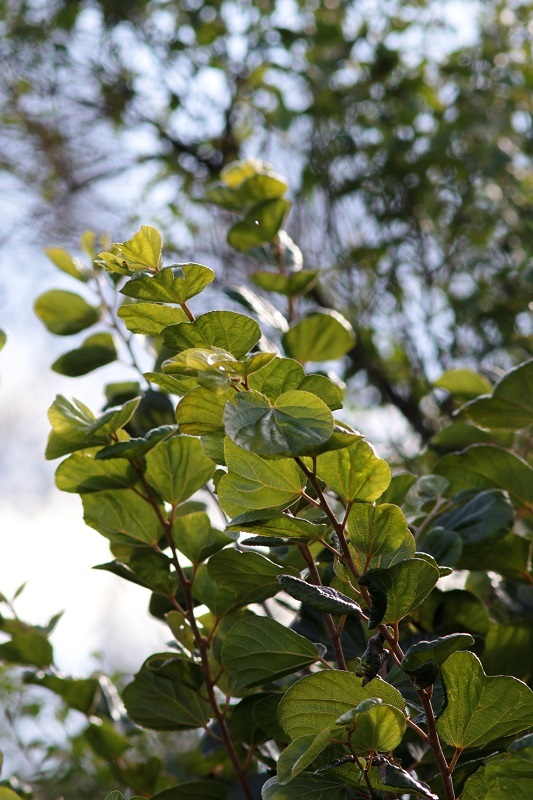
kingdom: Plantae
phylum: Tracheophyta
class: Magnoliopsida
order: Malpighiales
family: Salicaceae
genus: Trimeria
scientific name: Trimeria grandifolia
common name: Wild mulberry
